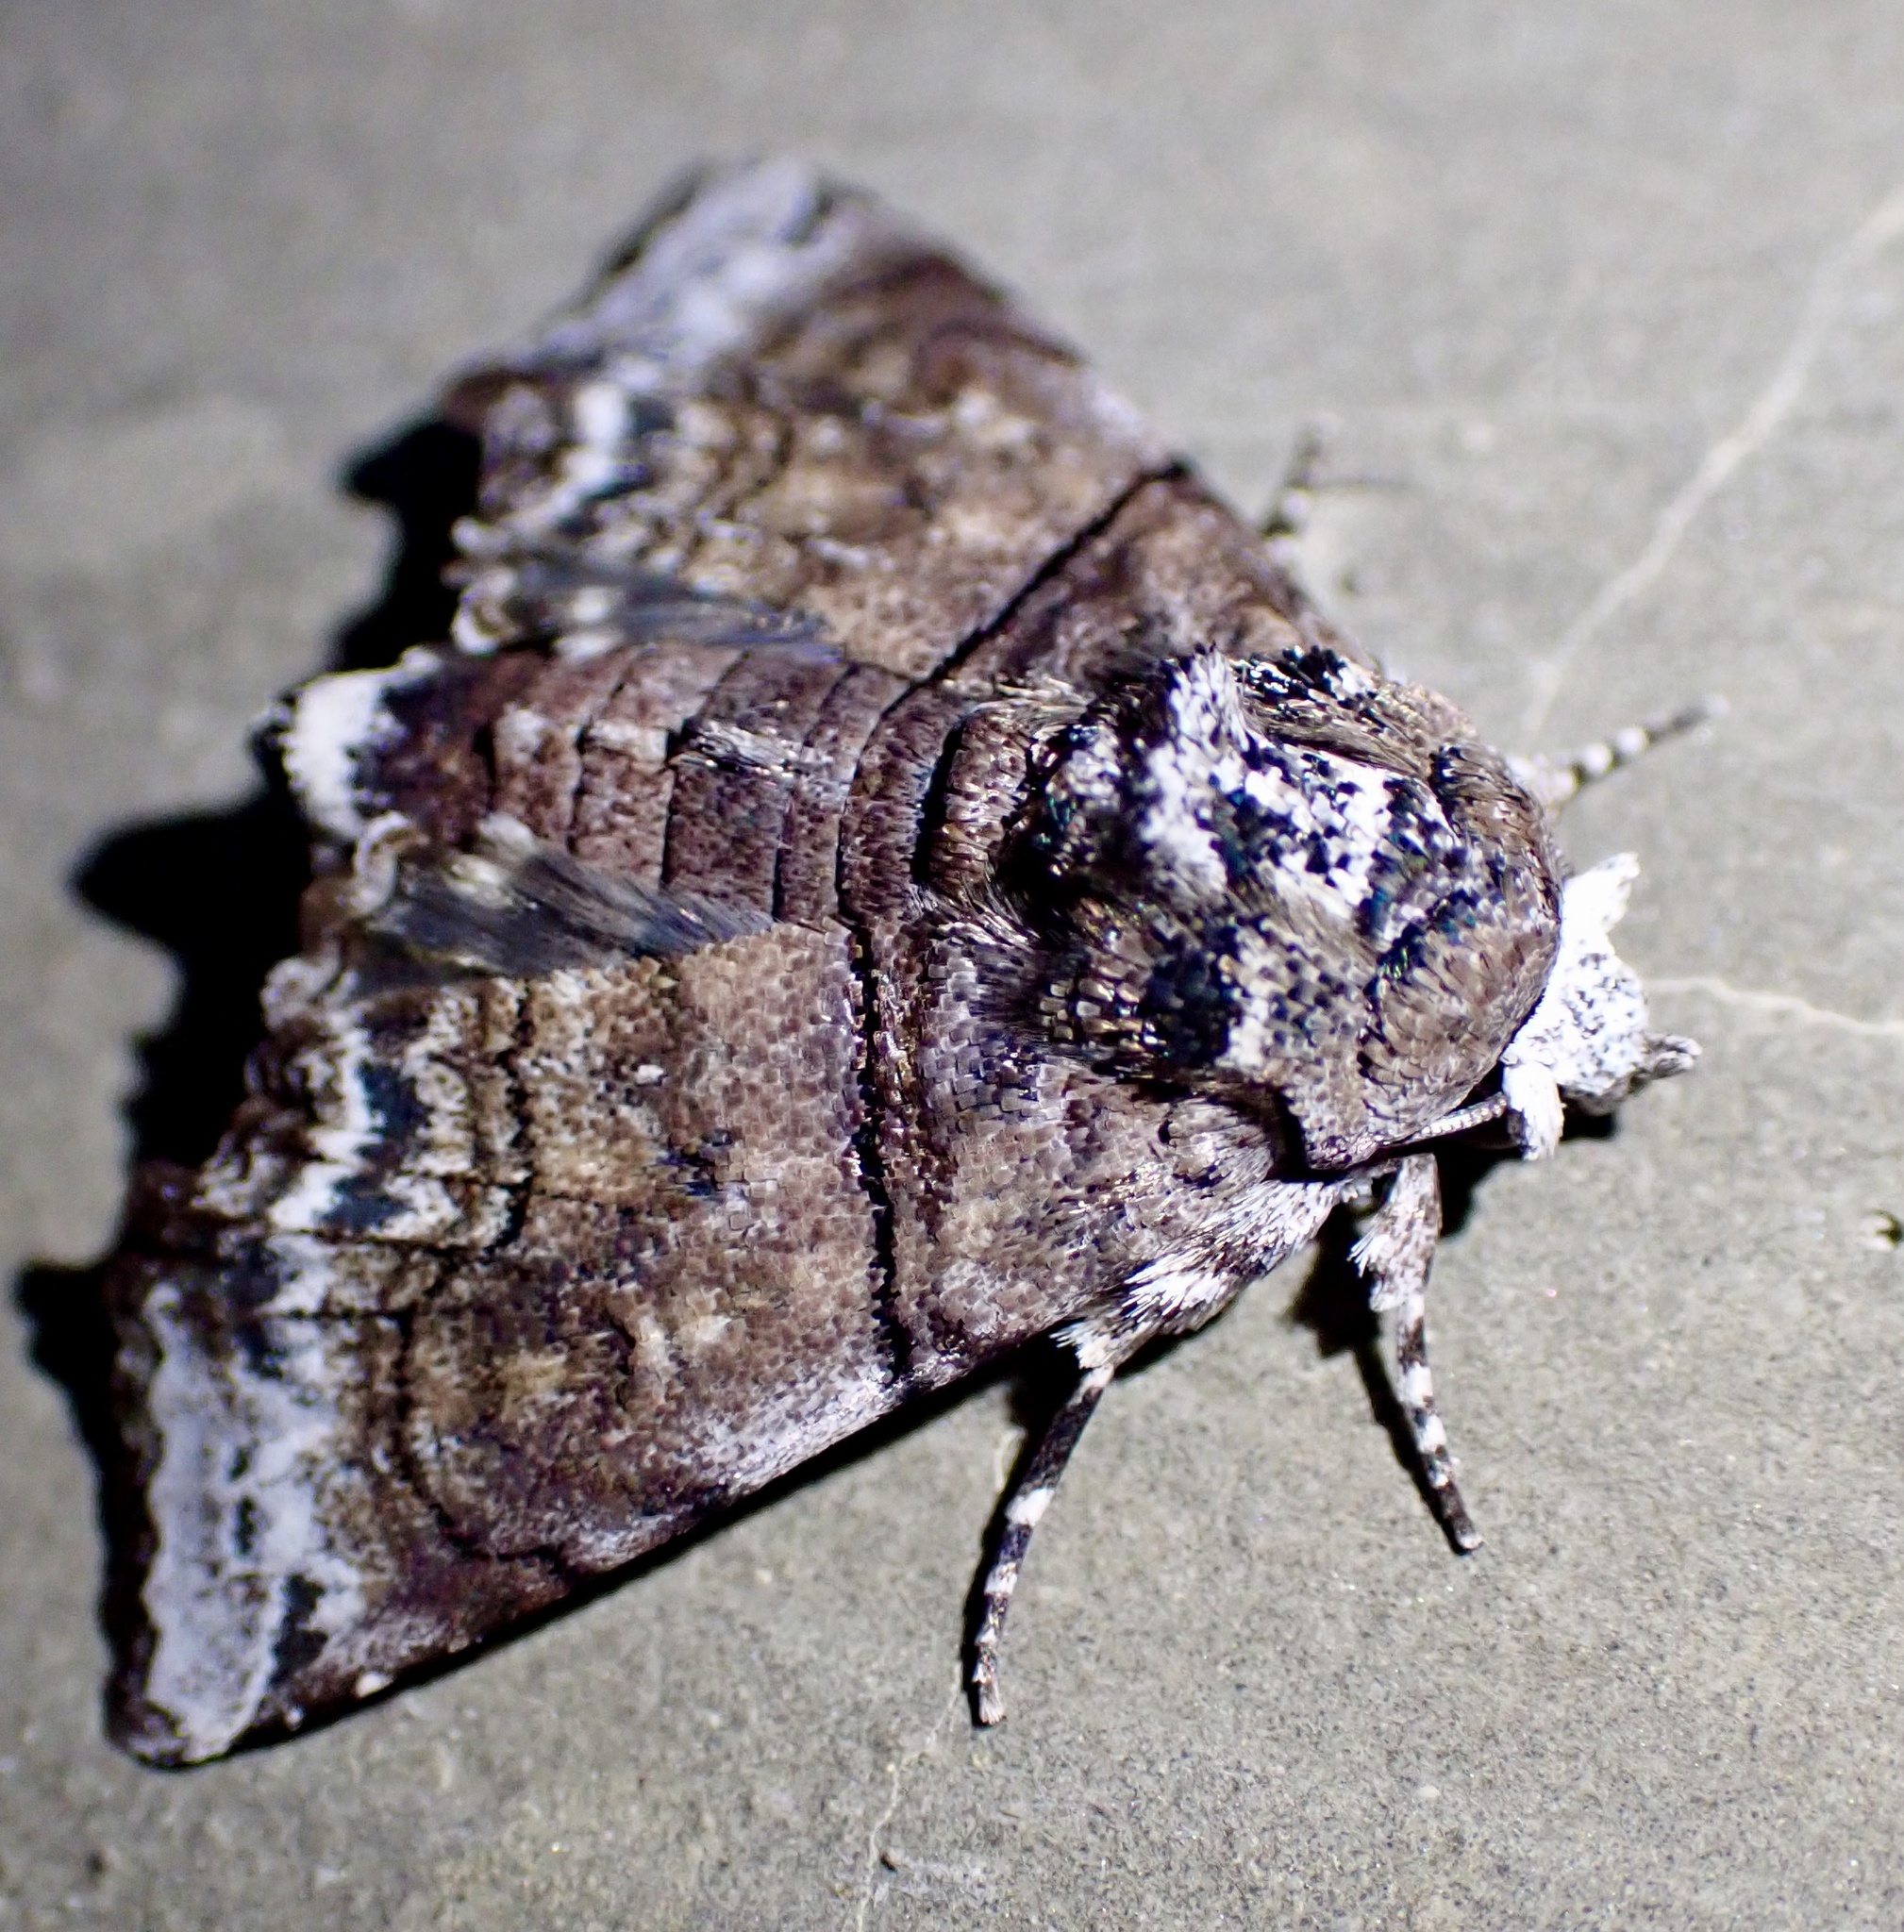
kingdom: Animalia
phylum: Arthropoda
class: Insecta
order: Lepidoptera
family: Euteliidae
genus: Aplotelia
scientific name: Aplotelia
